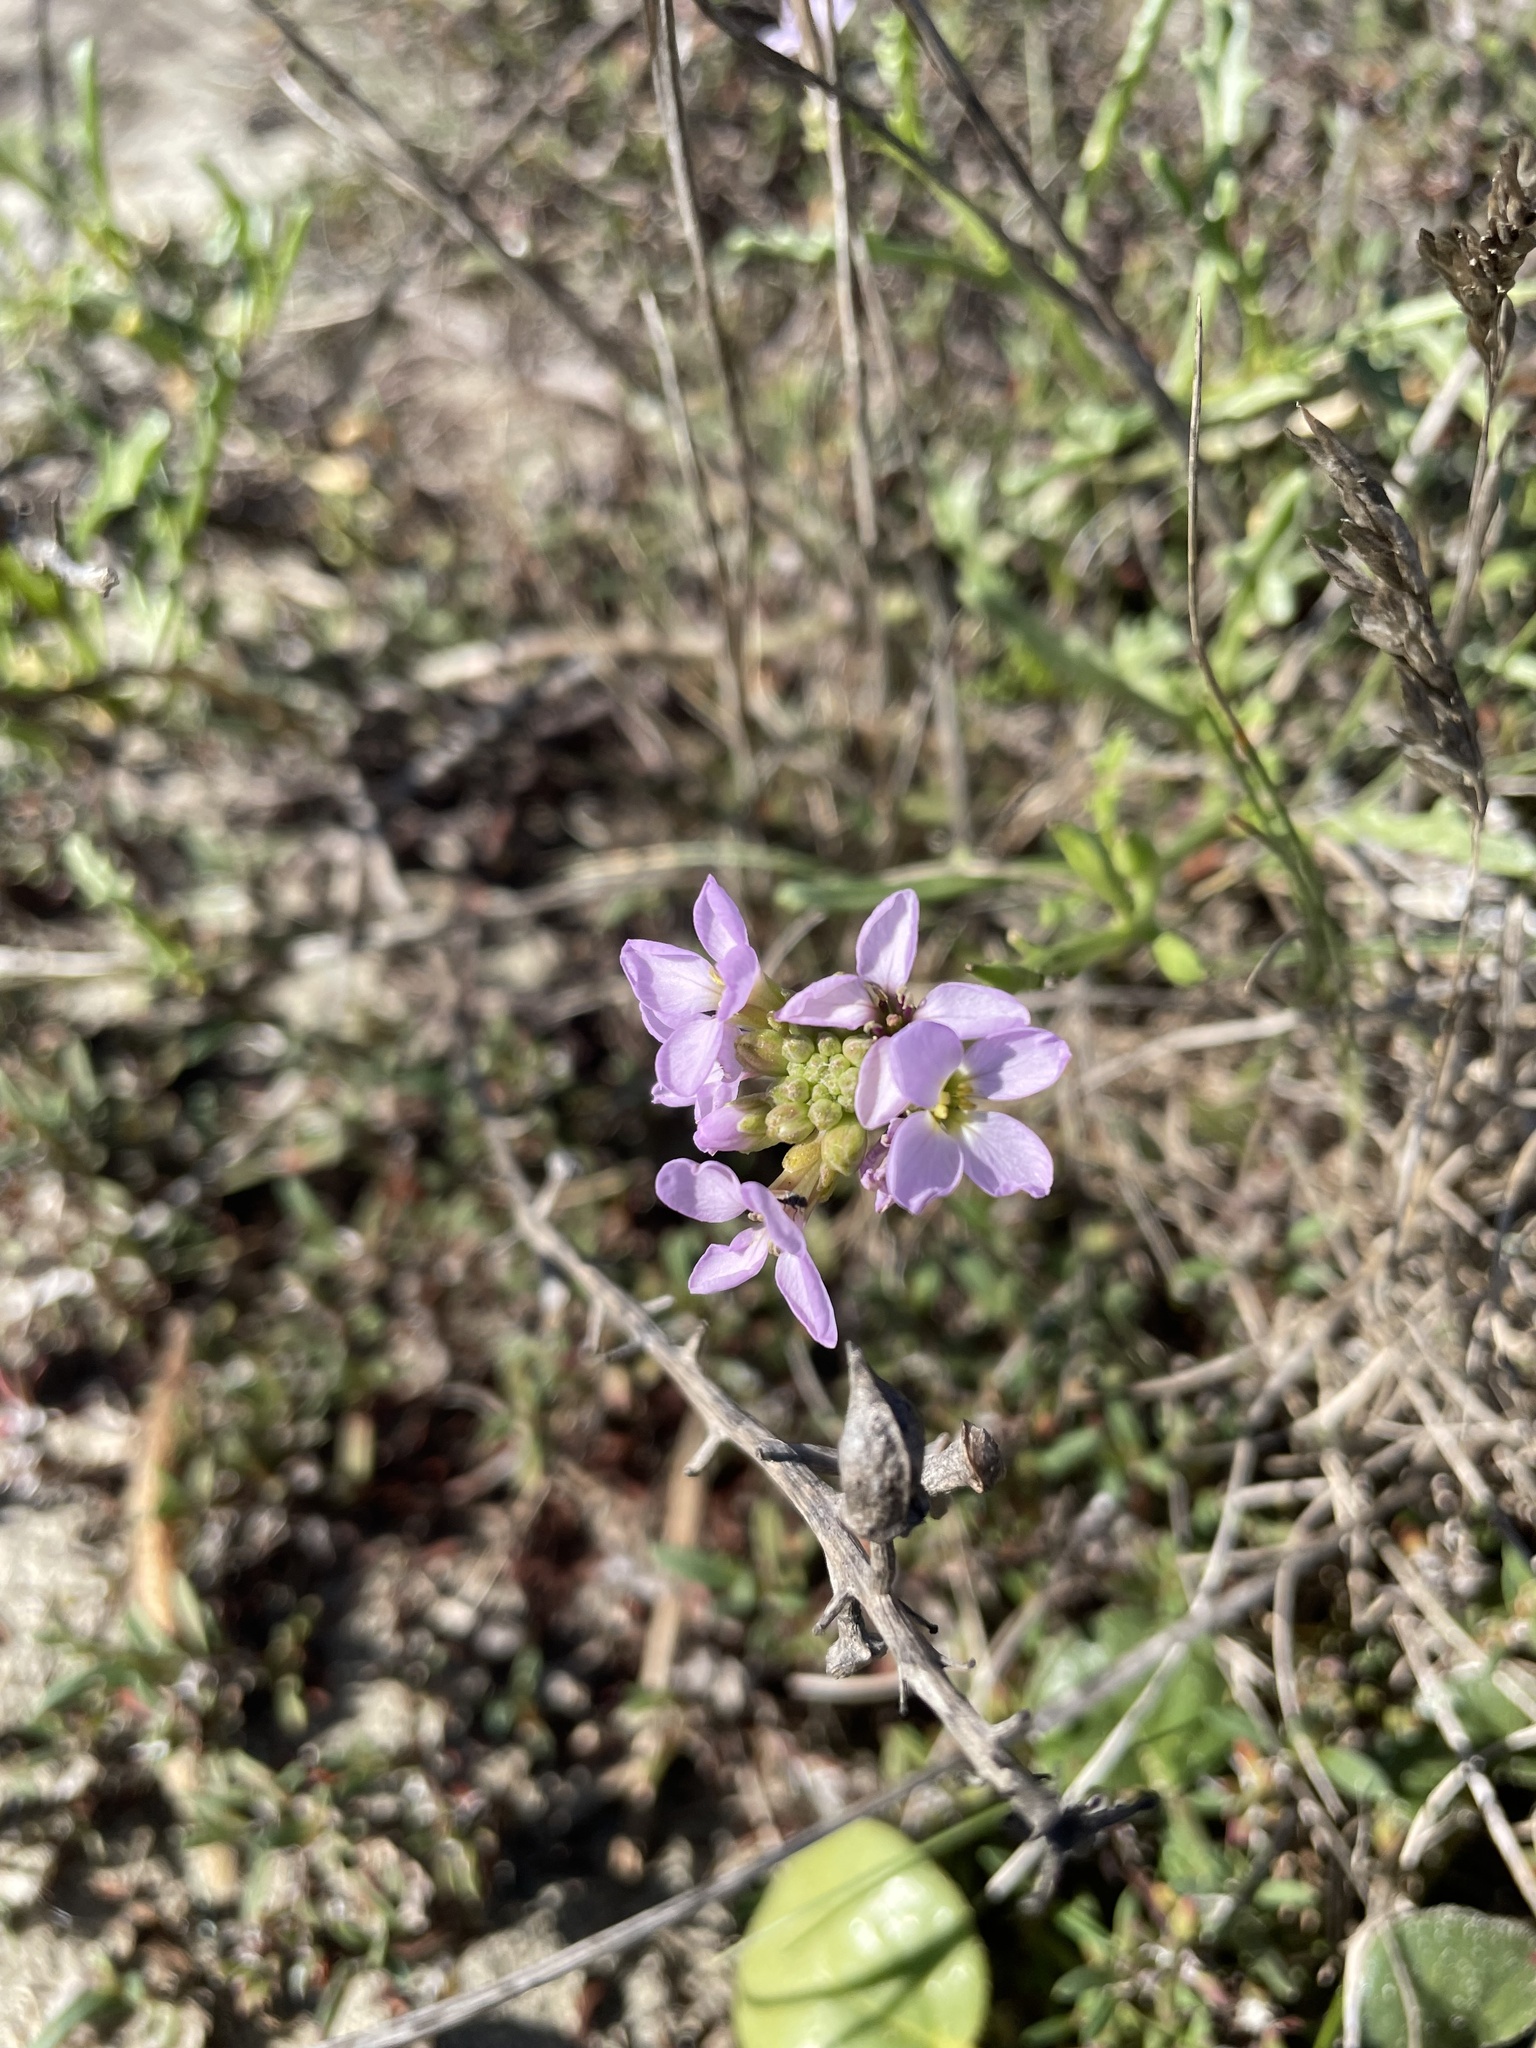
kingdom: Plantae
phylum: Tracheophyta
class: Magnoliopsida
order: Brassicales
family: Brassicaceae
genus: Cakile
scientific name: Cakile maritima
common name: Sea rocket
